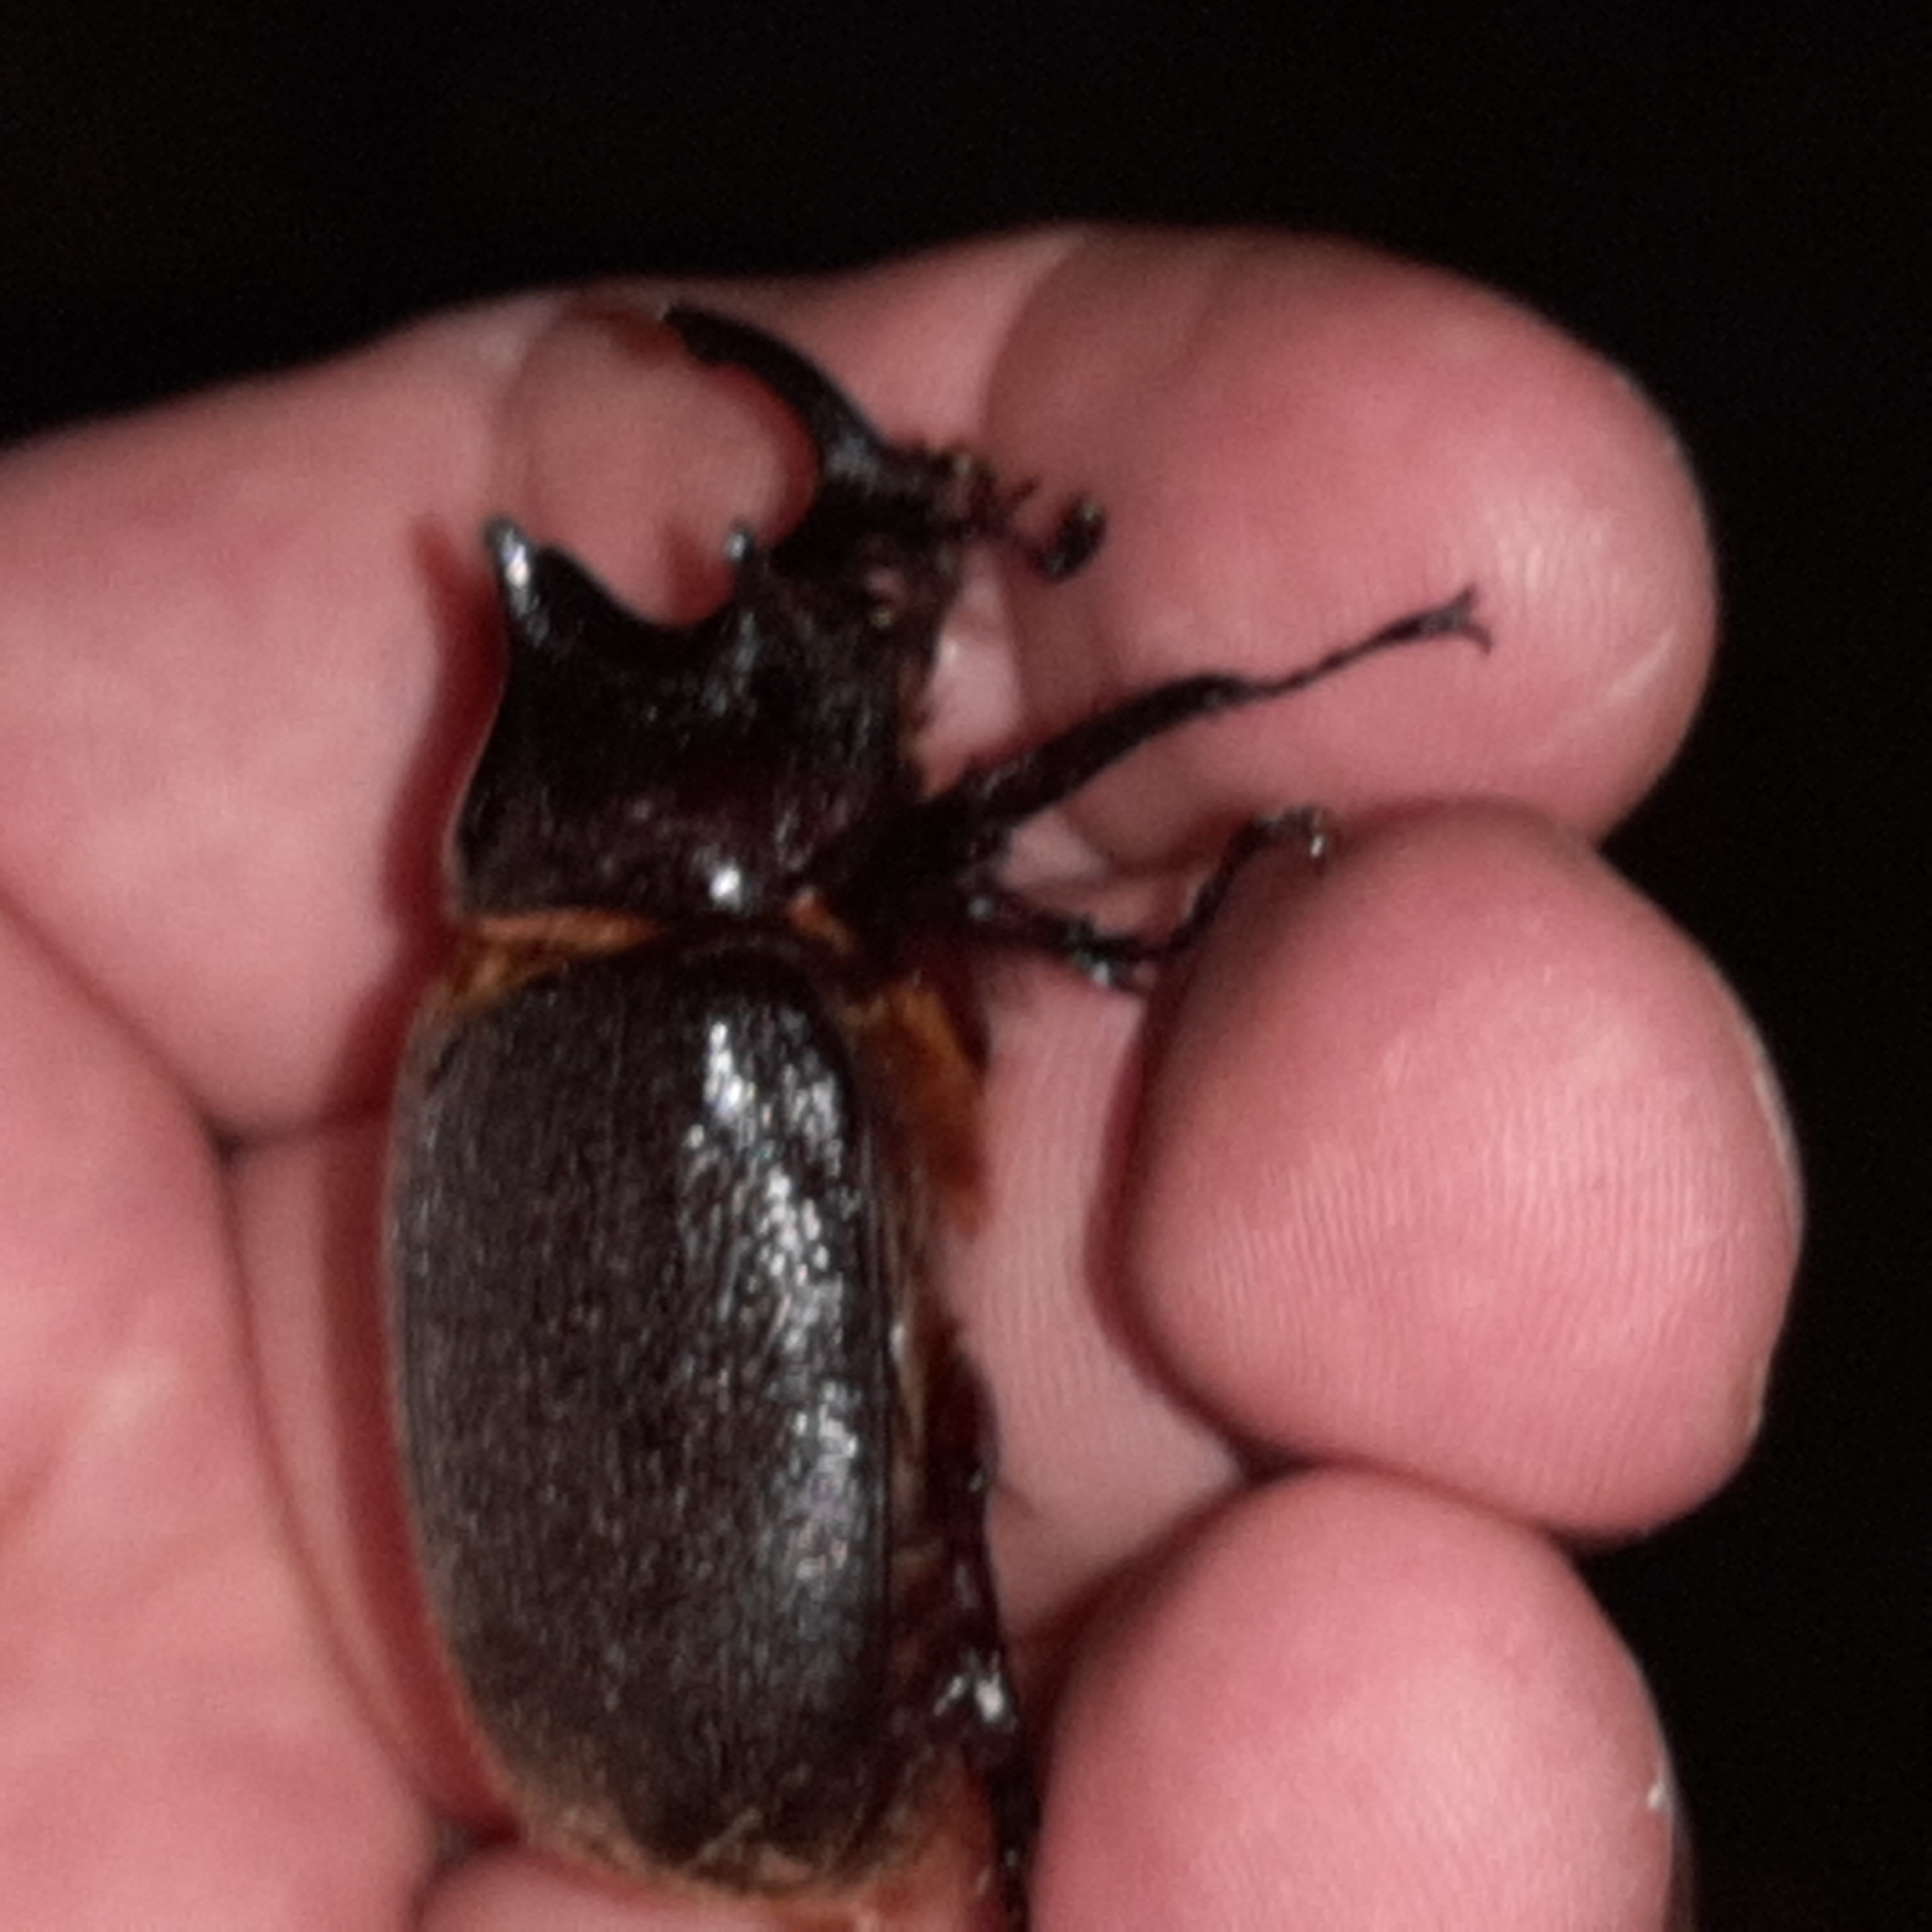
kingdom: Animalia
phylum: Arthropoda
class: Insecta
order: Coleoptera
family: Scarabaeidae
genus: Heterogomphus
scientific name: Heterogomphus mniszechi
